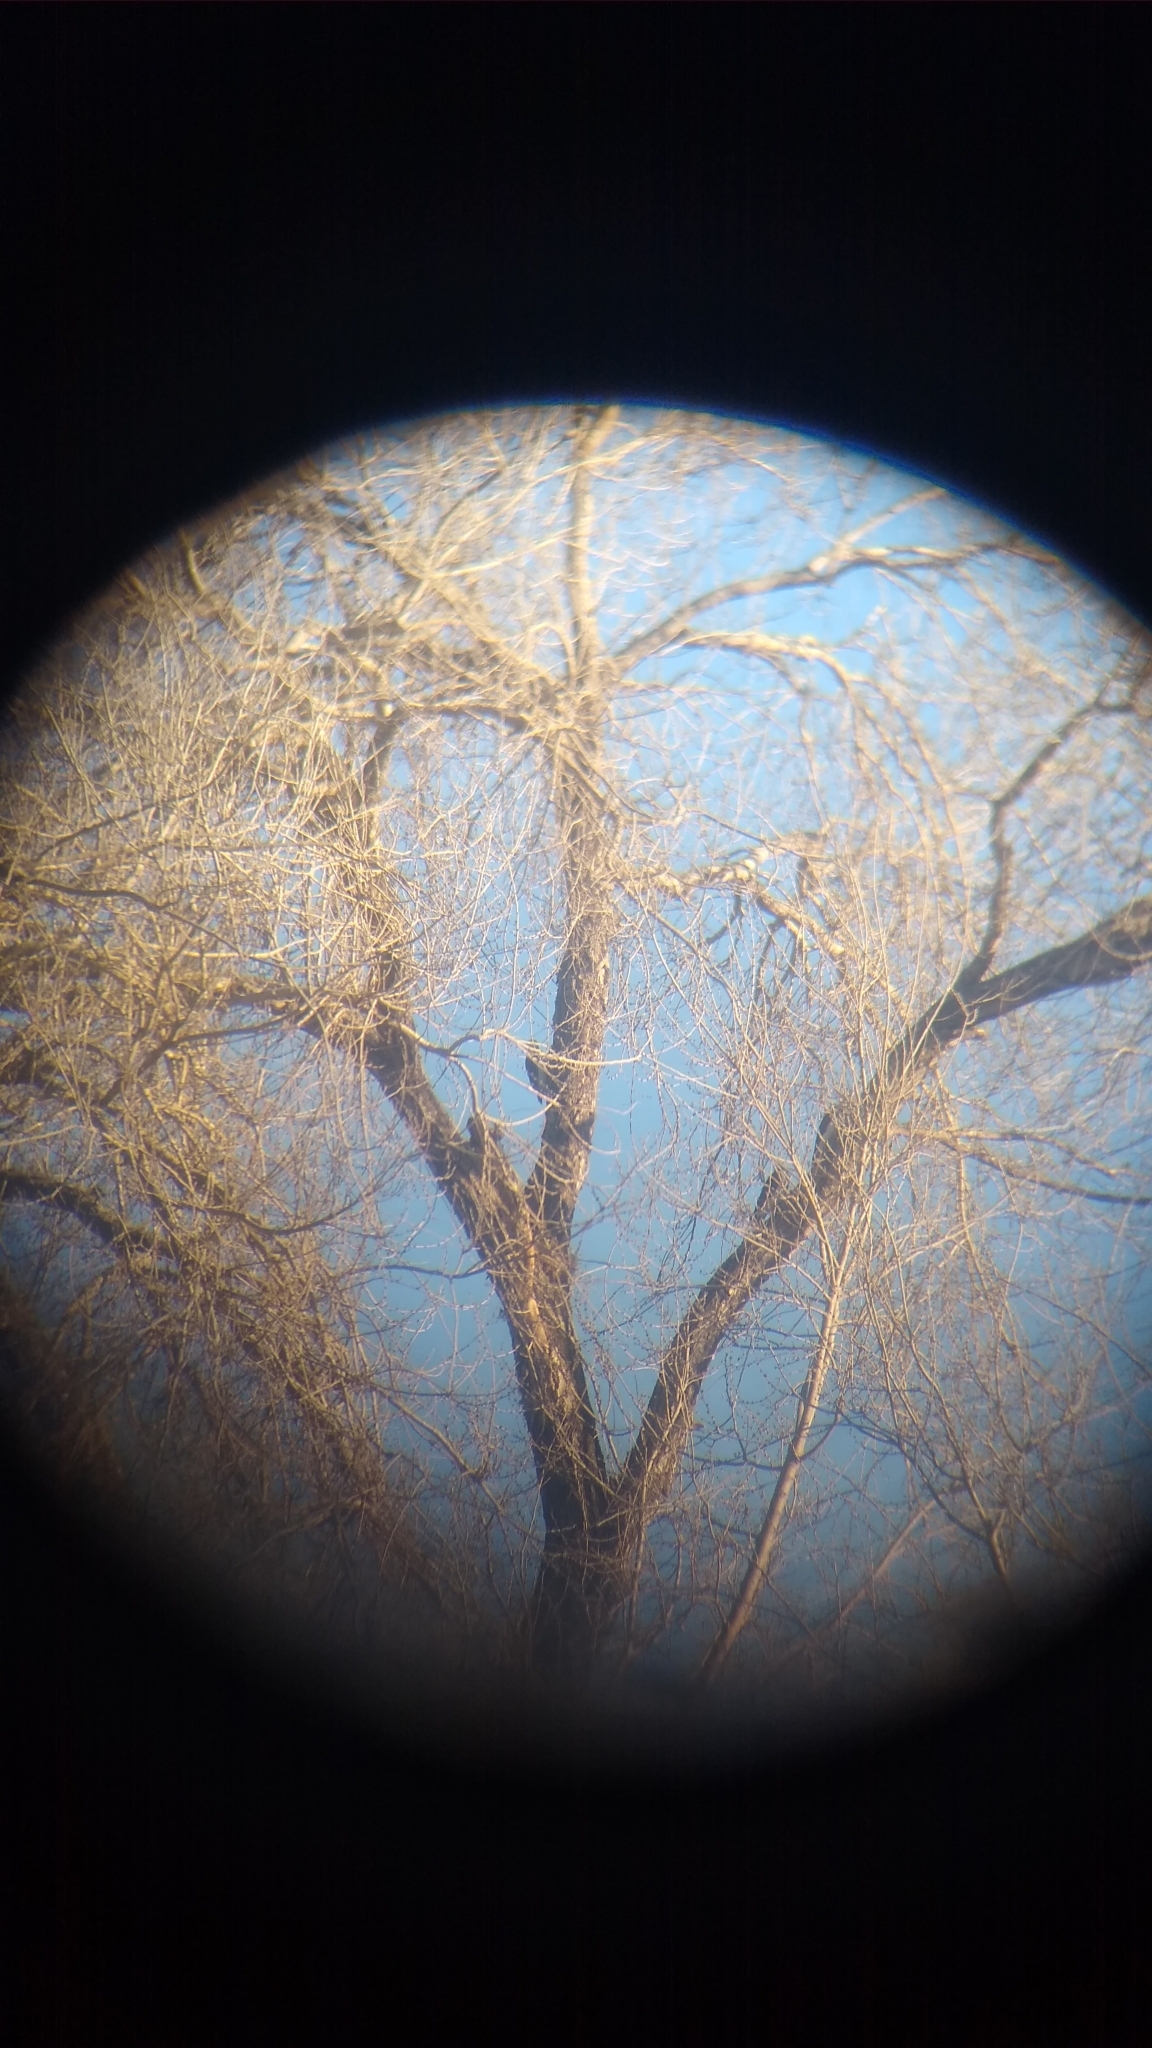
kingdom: Animalia
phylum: Chordata
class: Aves
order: Piciformes
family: Picidae
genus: Melanerpes
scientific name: Melanerpes candidus
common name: White woodpecker
